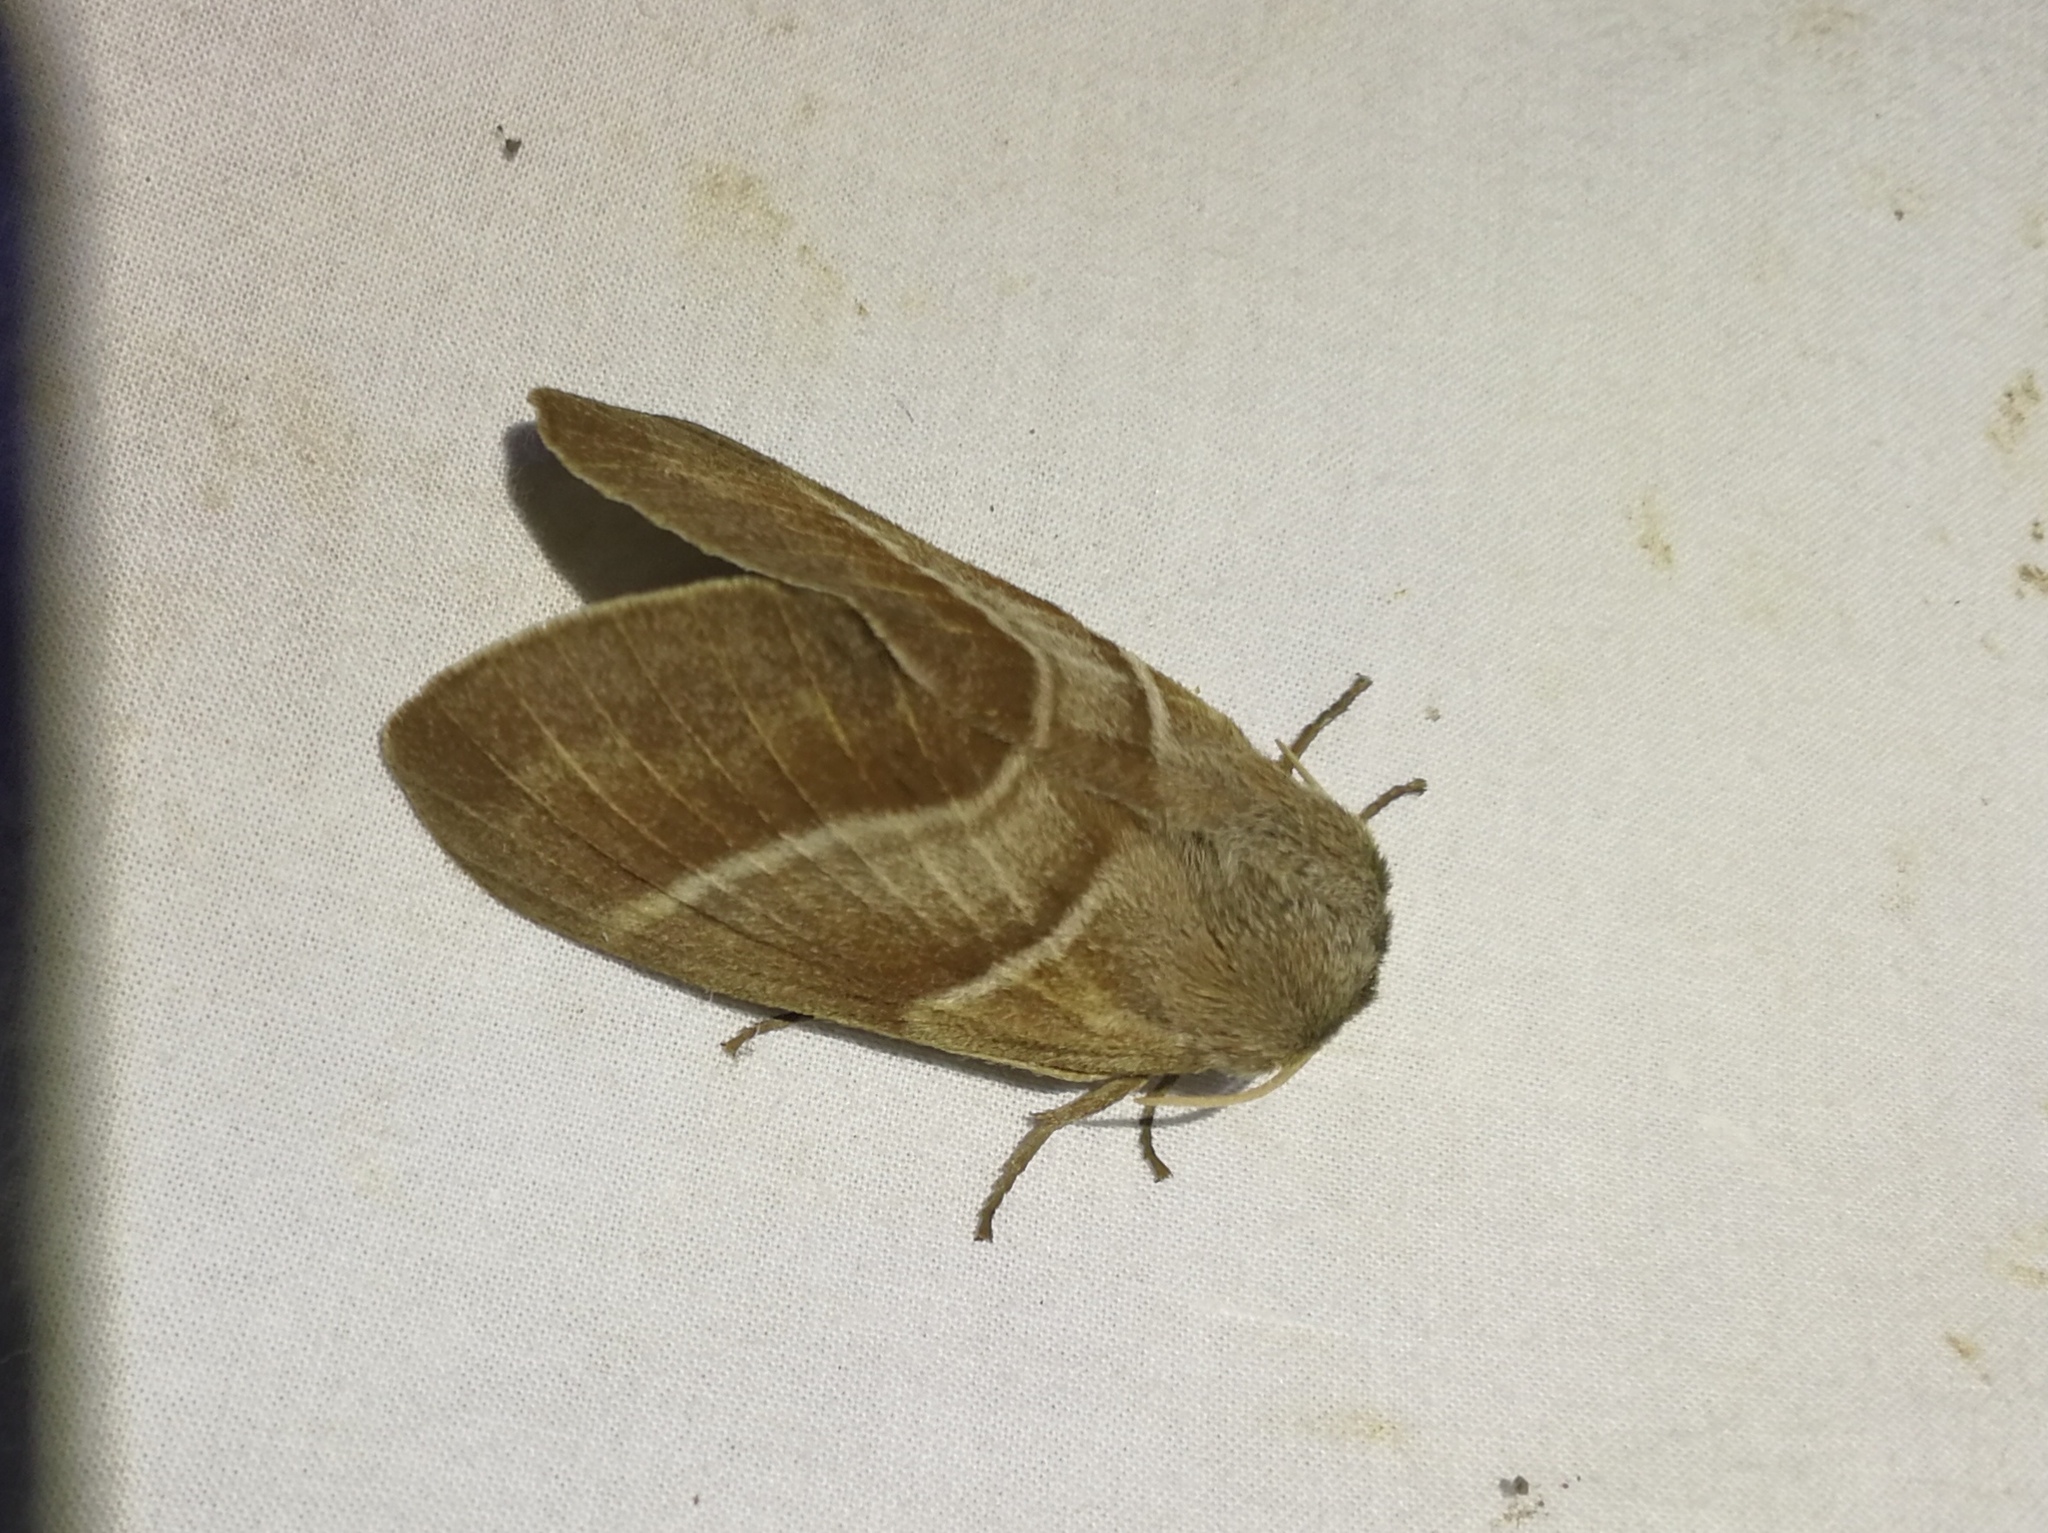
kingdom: Animalia
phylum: Arthropoda
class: Insecta
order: Lepidoptera
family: Lasiocampidae
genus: Macrothylacia
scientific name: Macrothylacia rubi
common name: Fox moth
